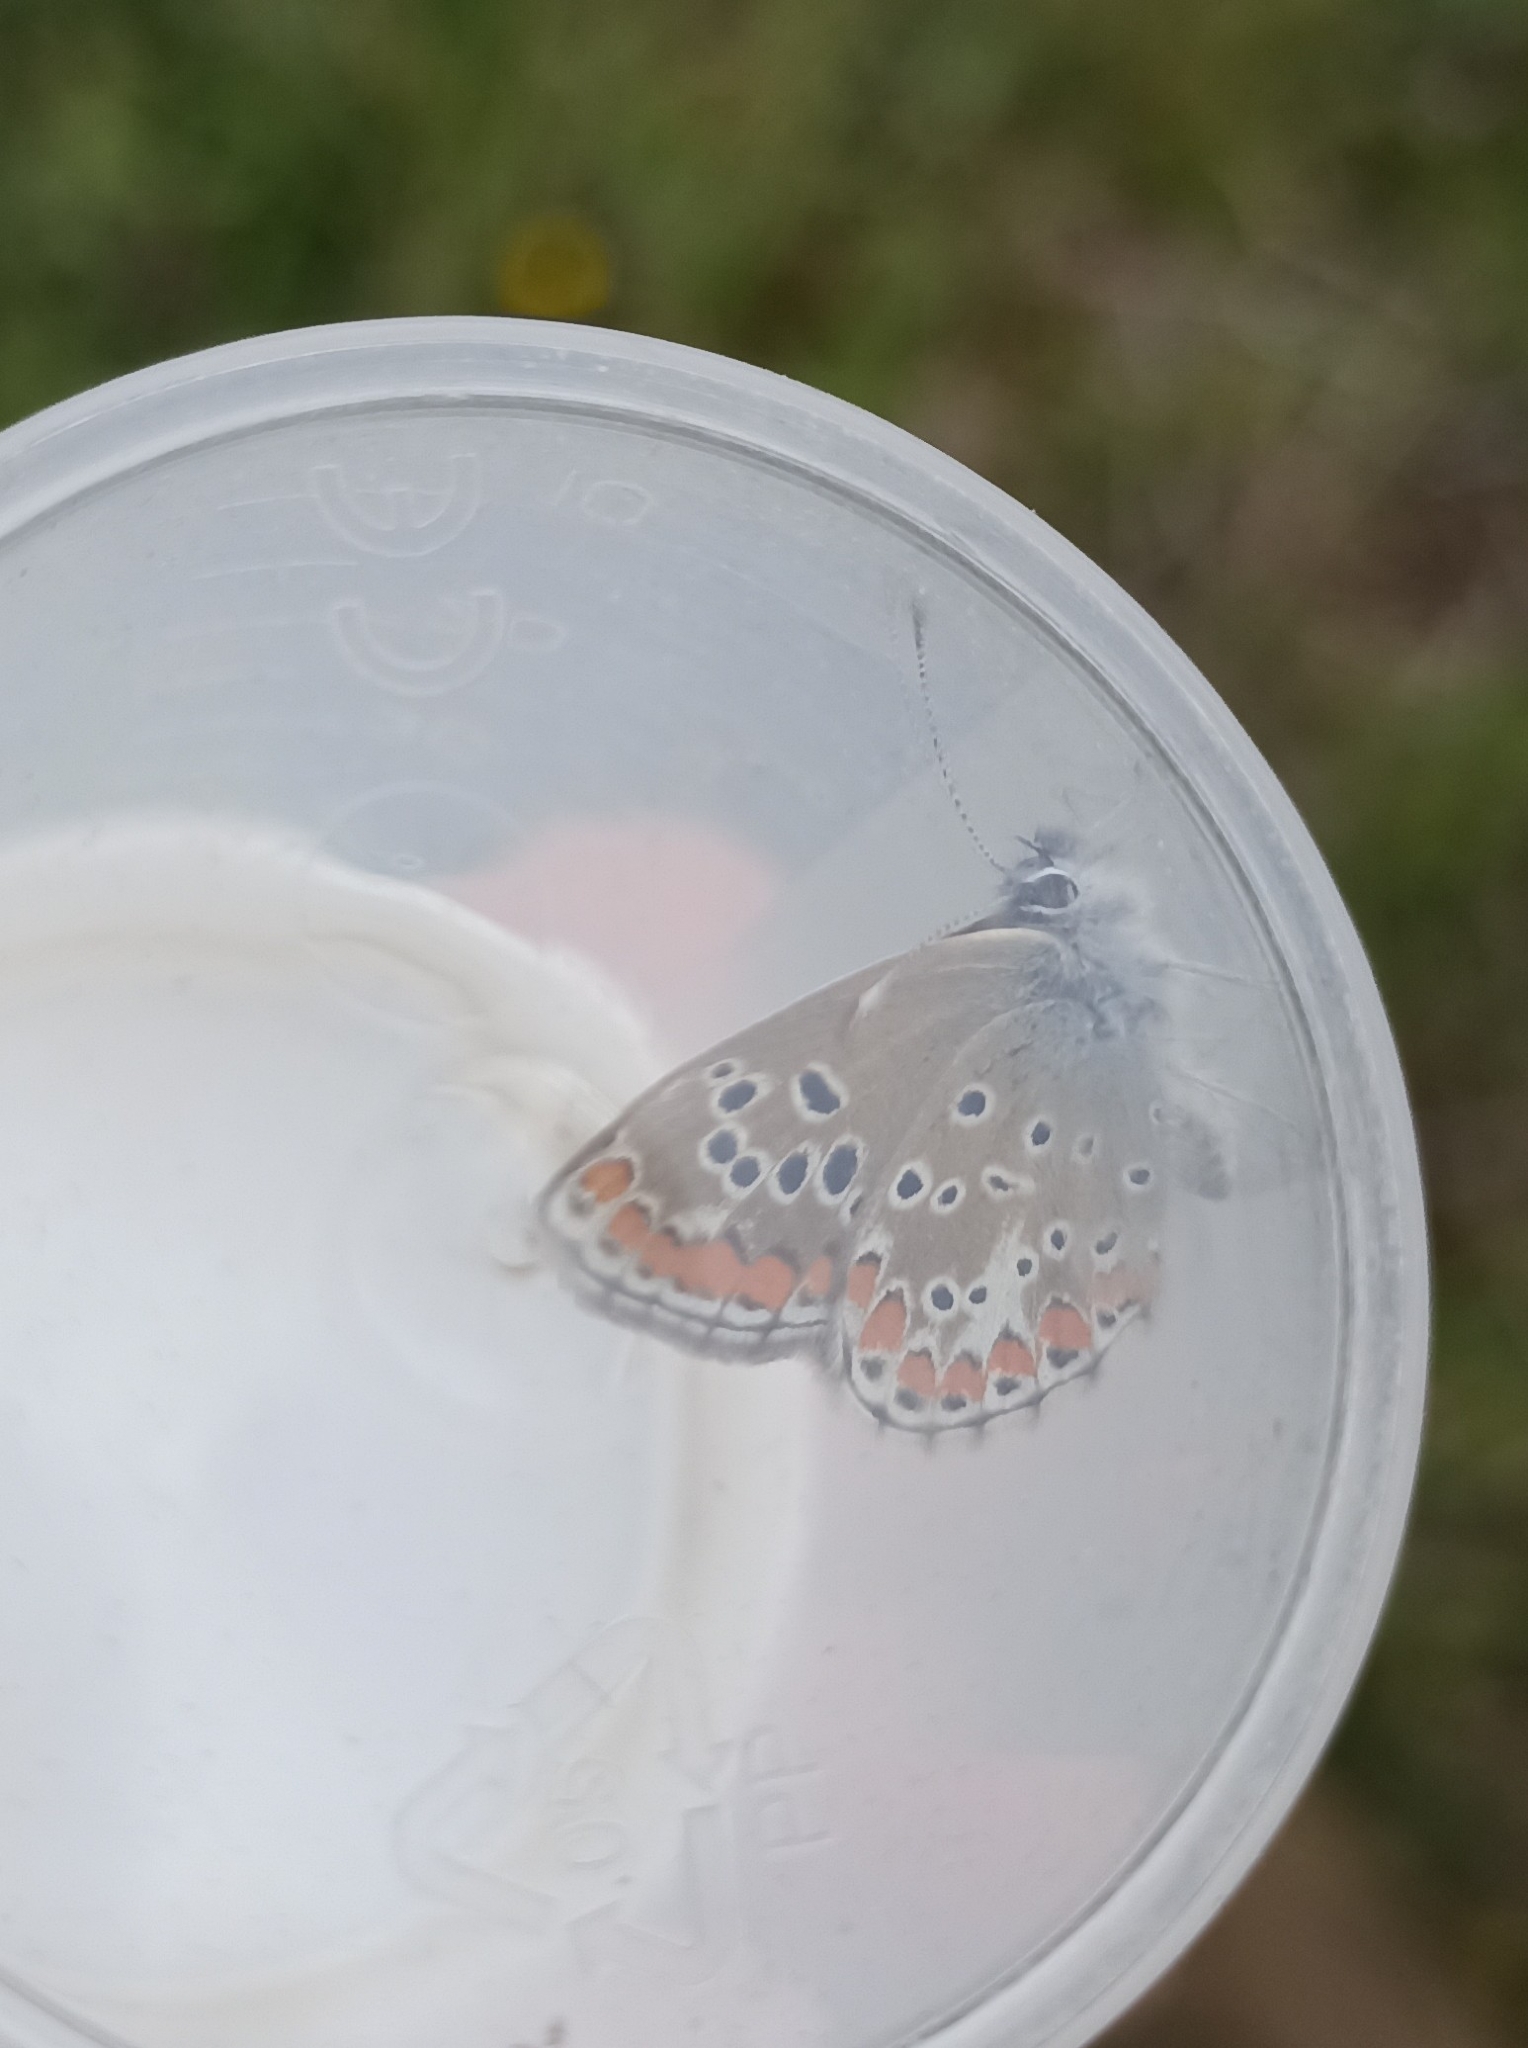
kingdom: Animalia
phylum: Arthropoda
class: Insecta
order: Lepidoptera
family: Lycaenidae
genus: Aricia
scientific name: Aricia agestis
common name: Brown argus
